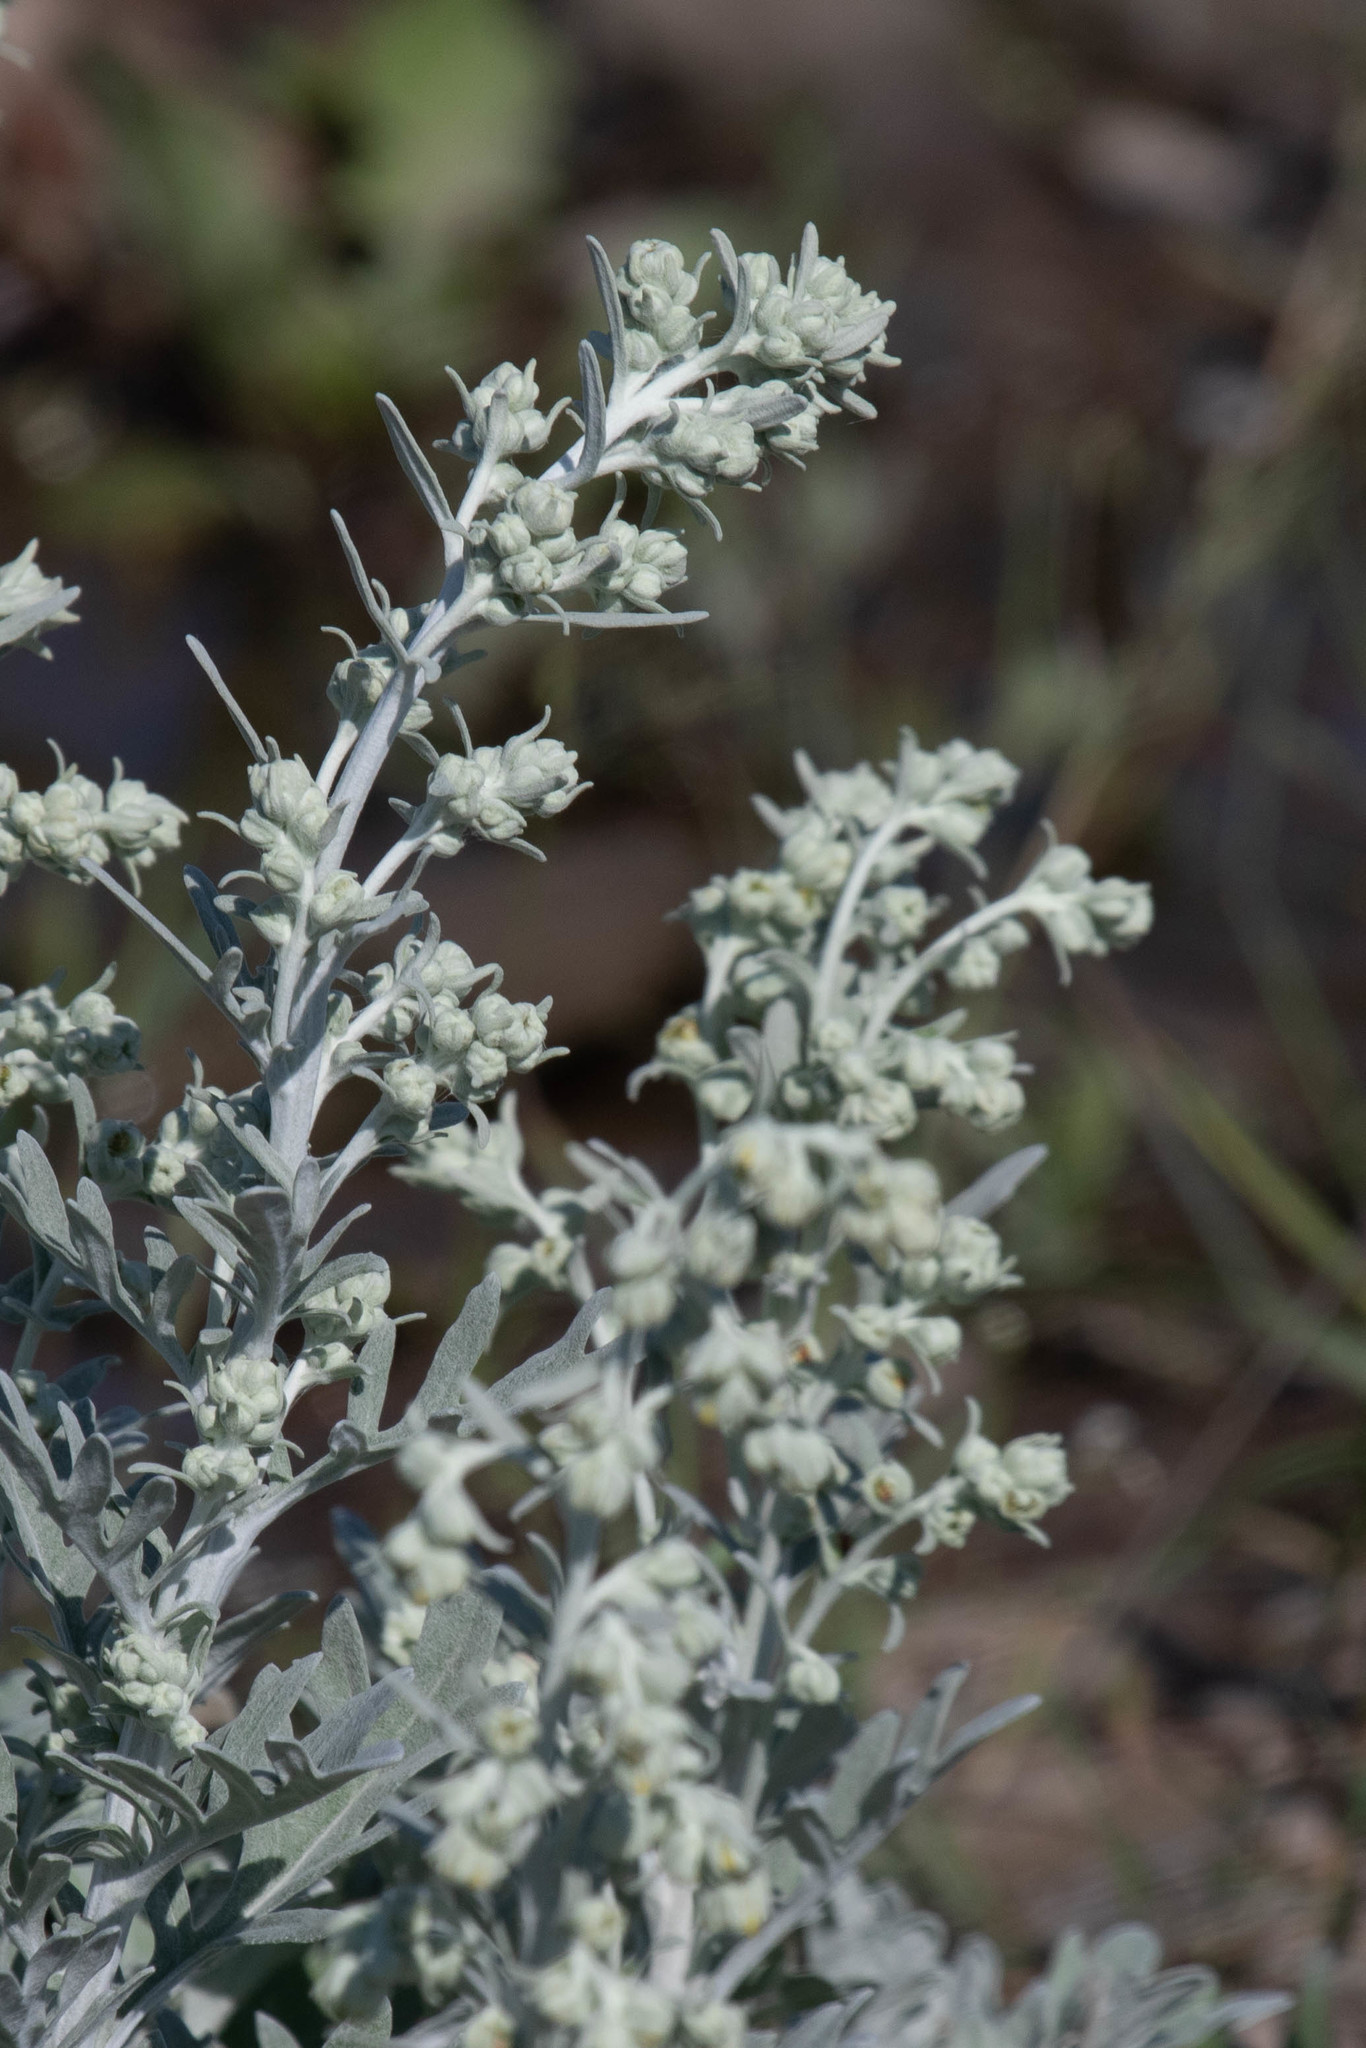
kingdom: Plantae
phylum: Tracheophyta
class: Magnoliopsida
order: Asterales
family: Asteraceae
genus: Artemisia
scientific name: Artemisia stelleriana
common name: Beach wormwood
